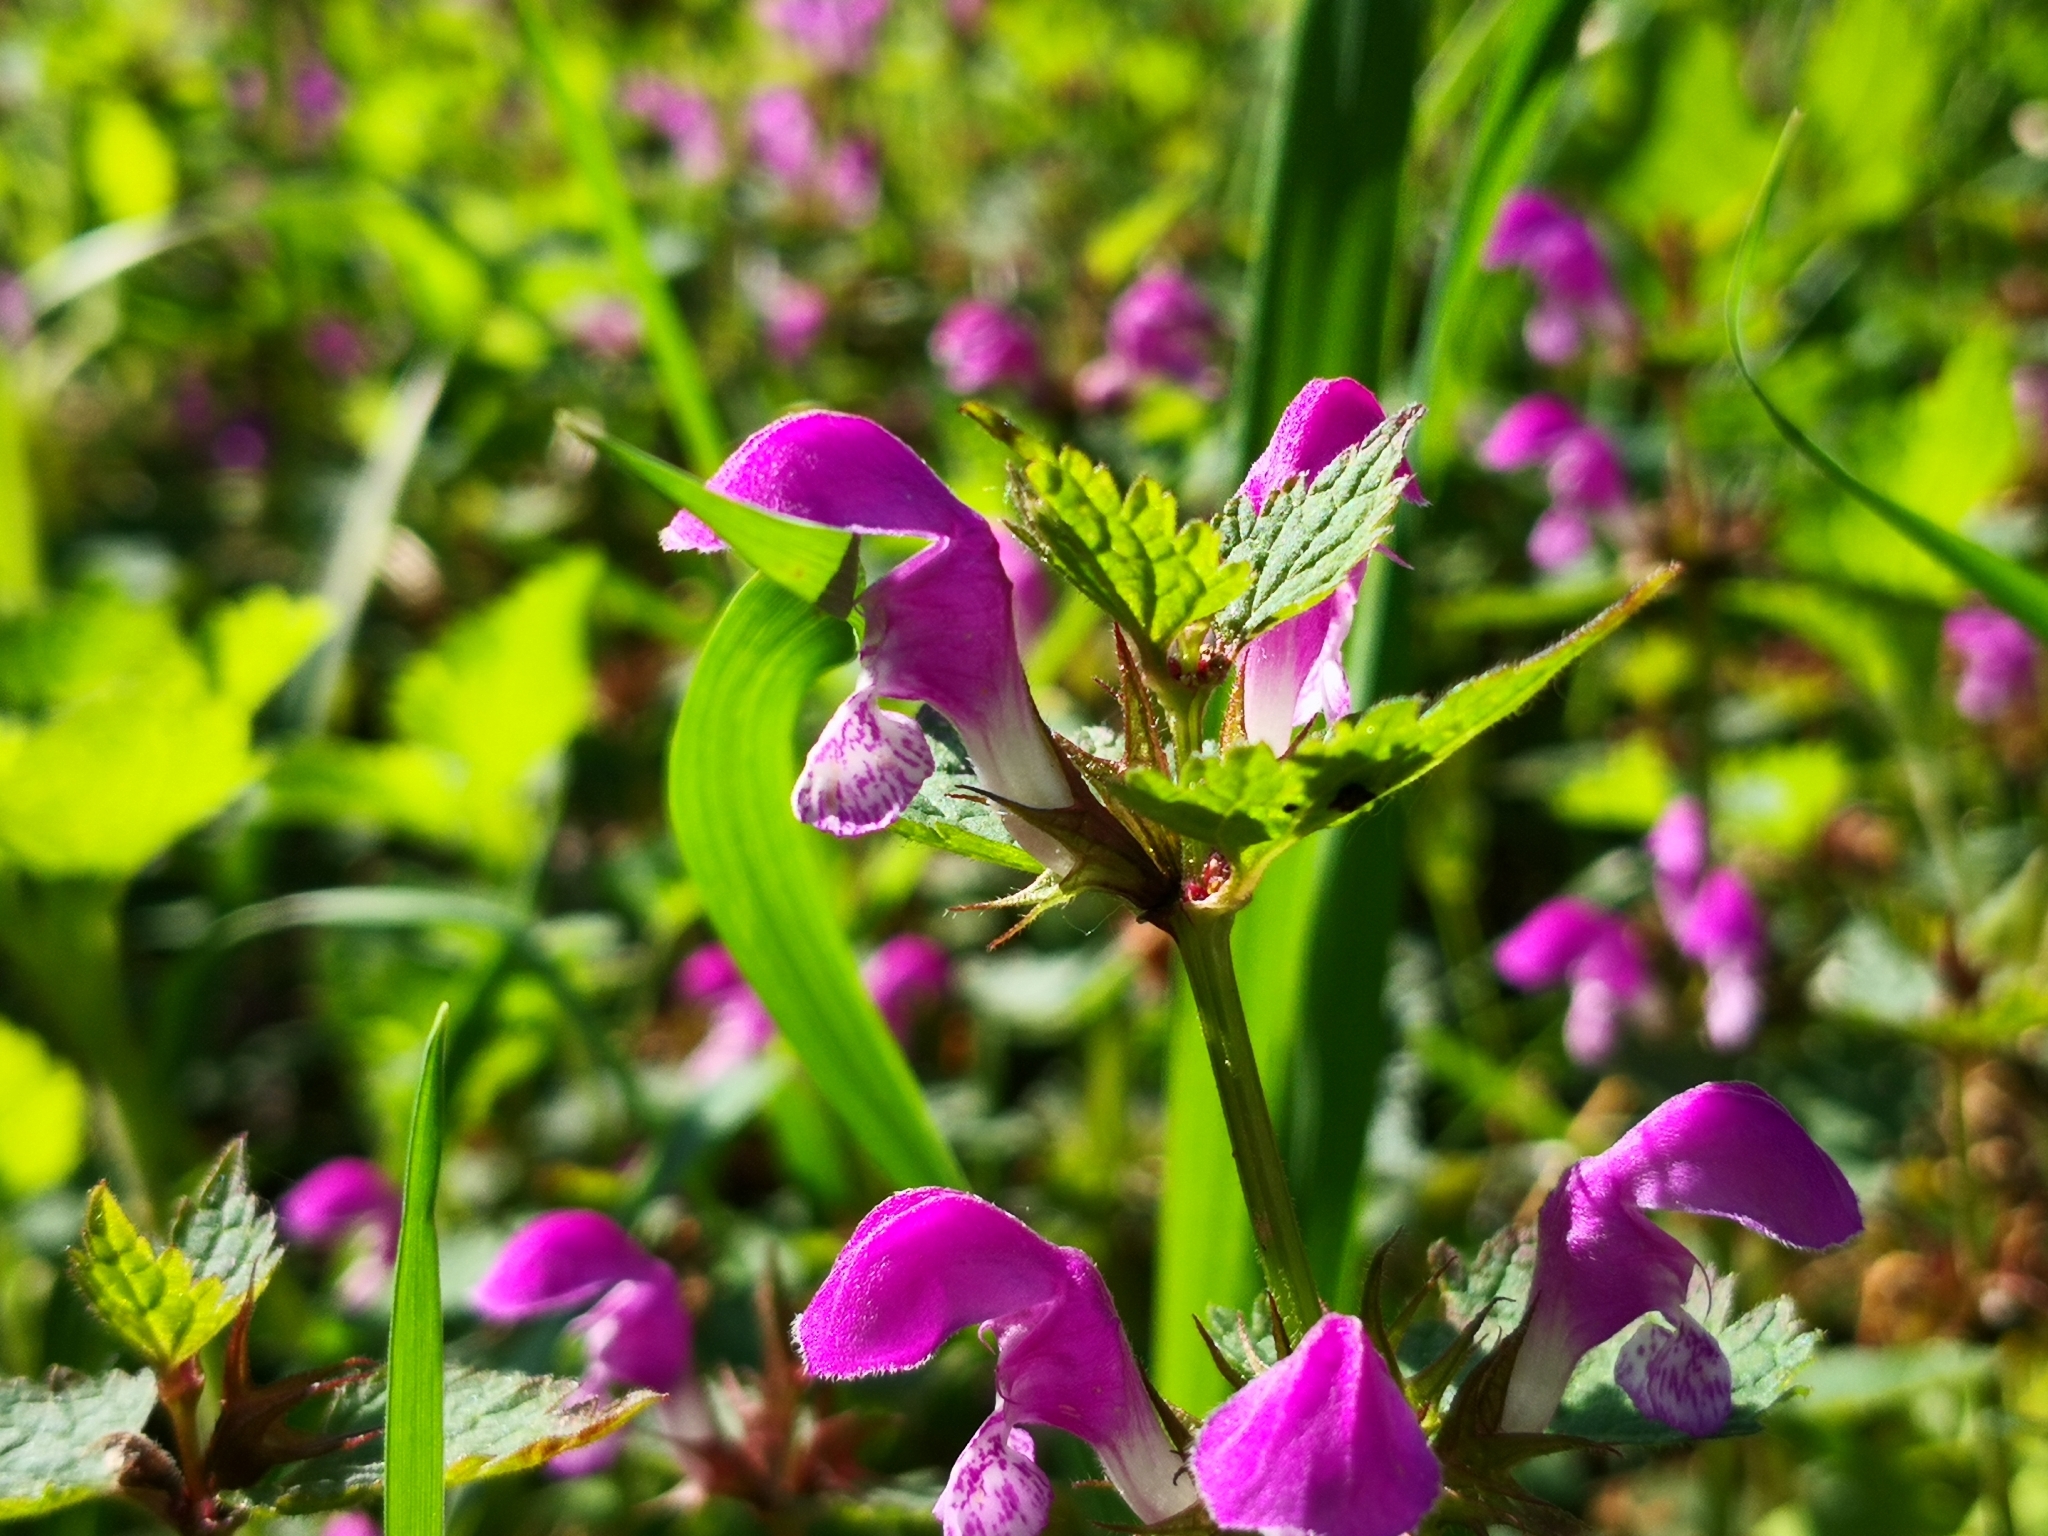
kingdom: Plantae
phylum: Tracheophyta
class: Magnoliopsida
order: Lamiales
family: Lamiaceae
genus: Lamium
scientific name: Lamium maculatum
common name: Spotted dead-nettle
